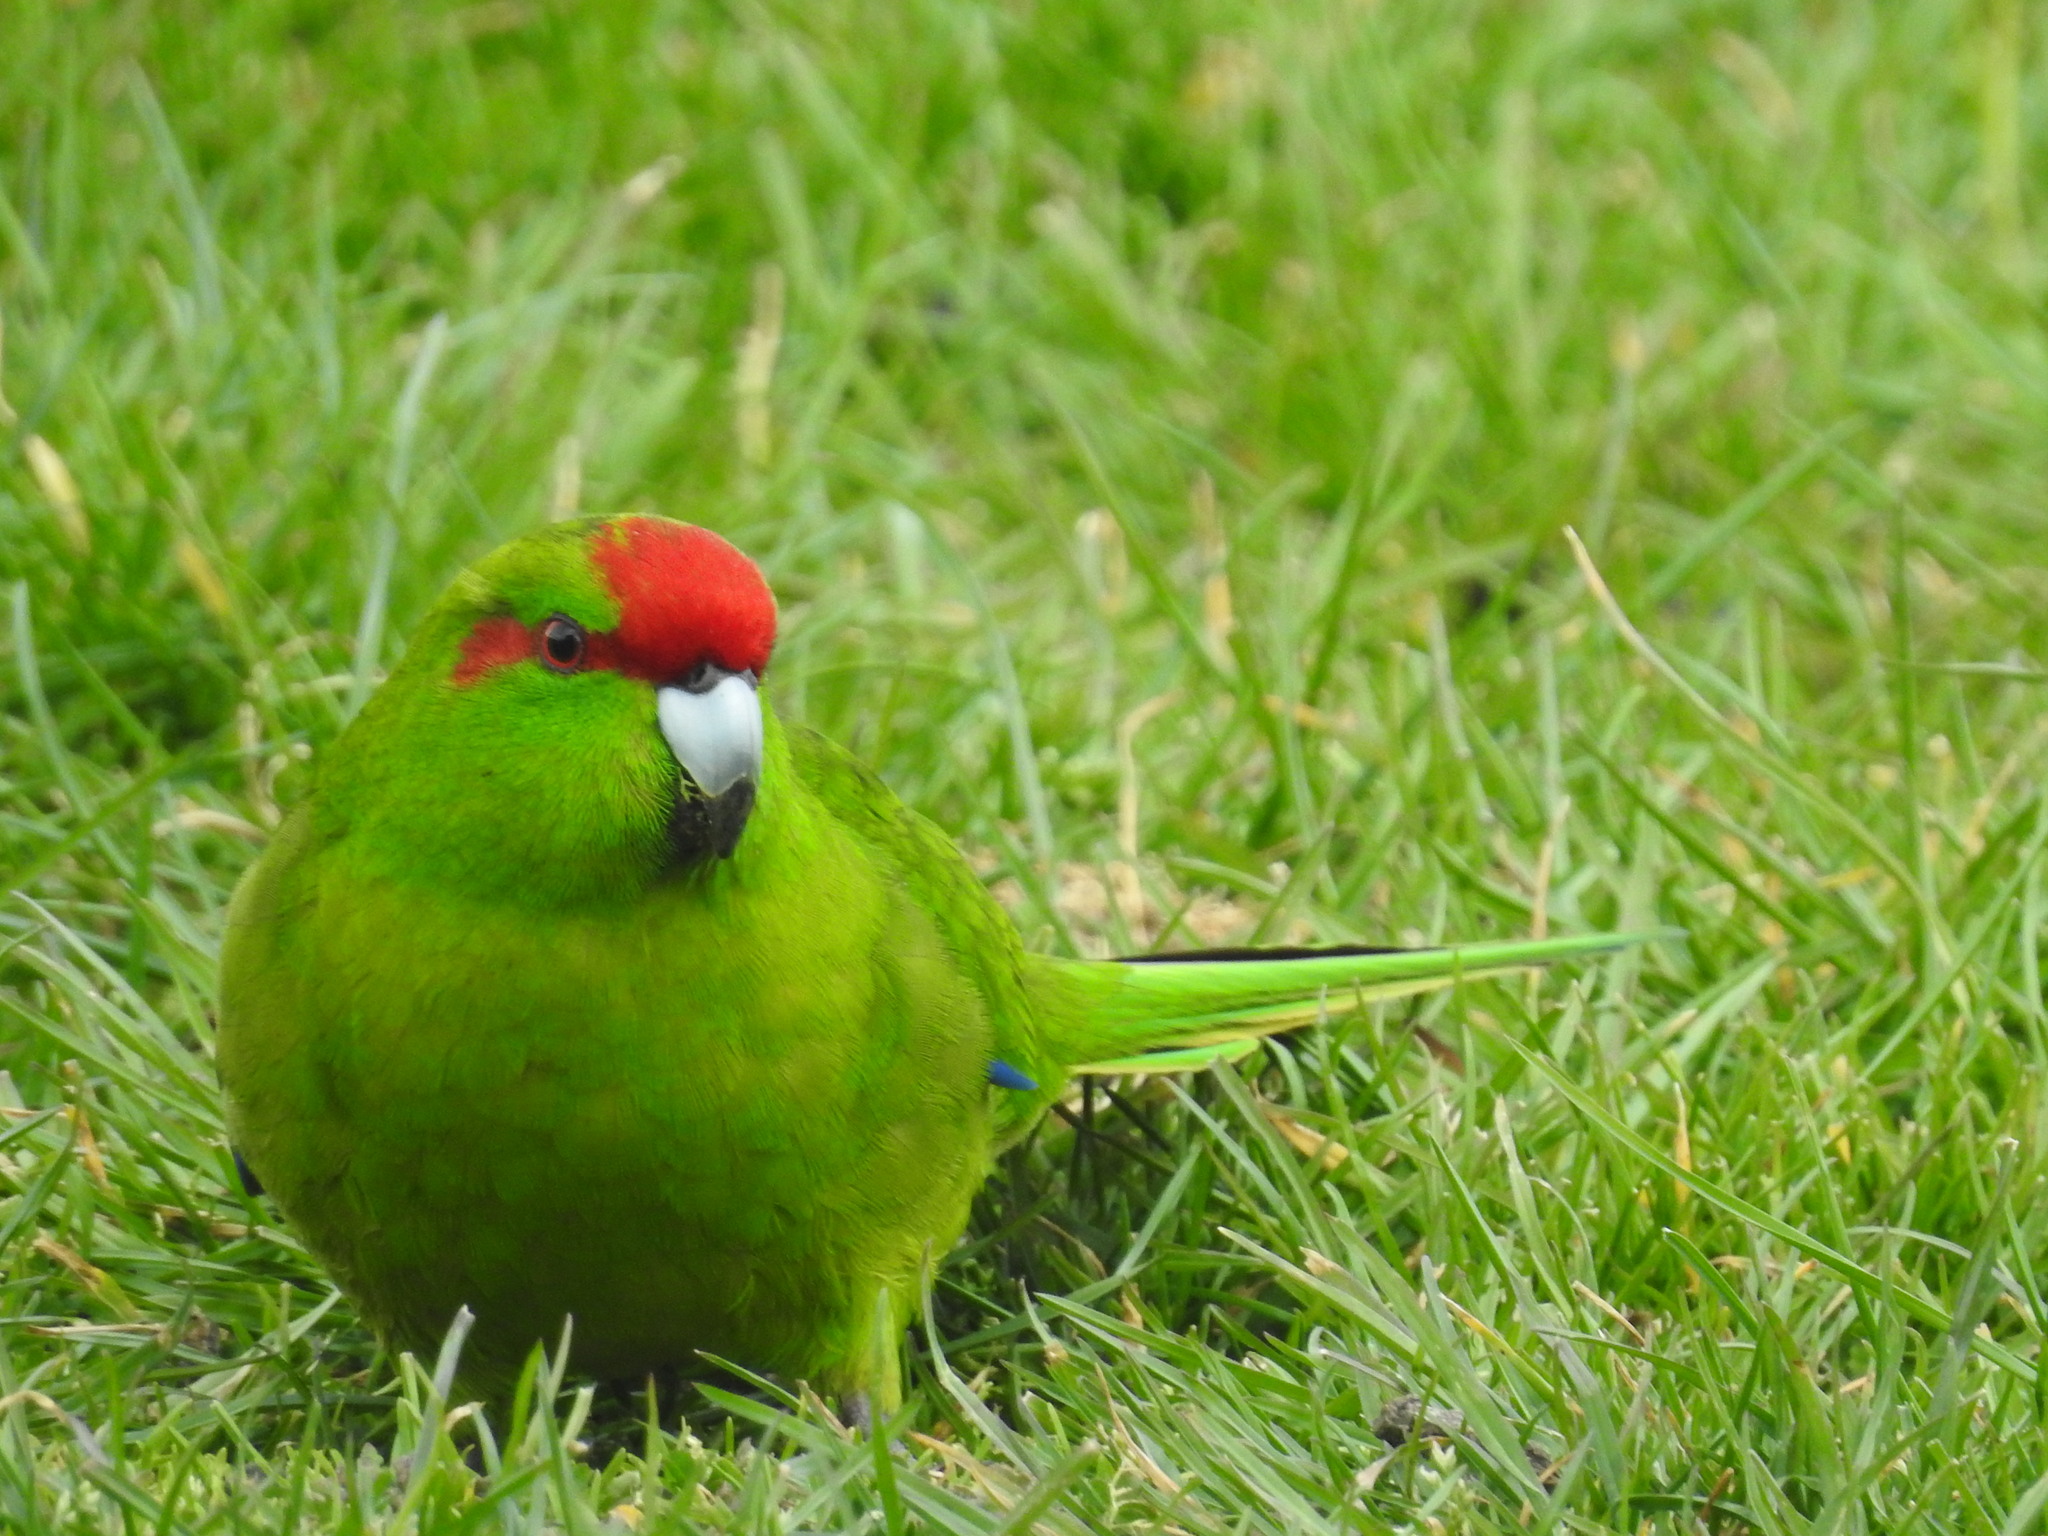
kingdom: Animalia
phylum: Chordata
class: Aves
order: Psittaciformes
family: Psittacidae
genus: Cyanoramphus
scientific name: Cyanoramphus novaezelandiae
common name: Red-fronted parakeet
